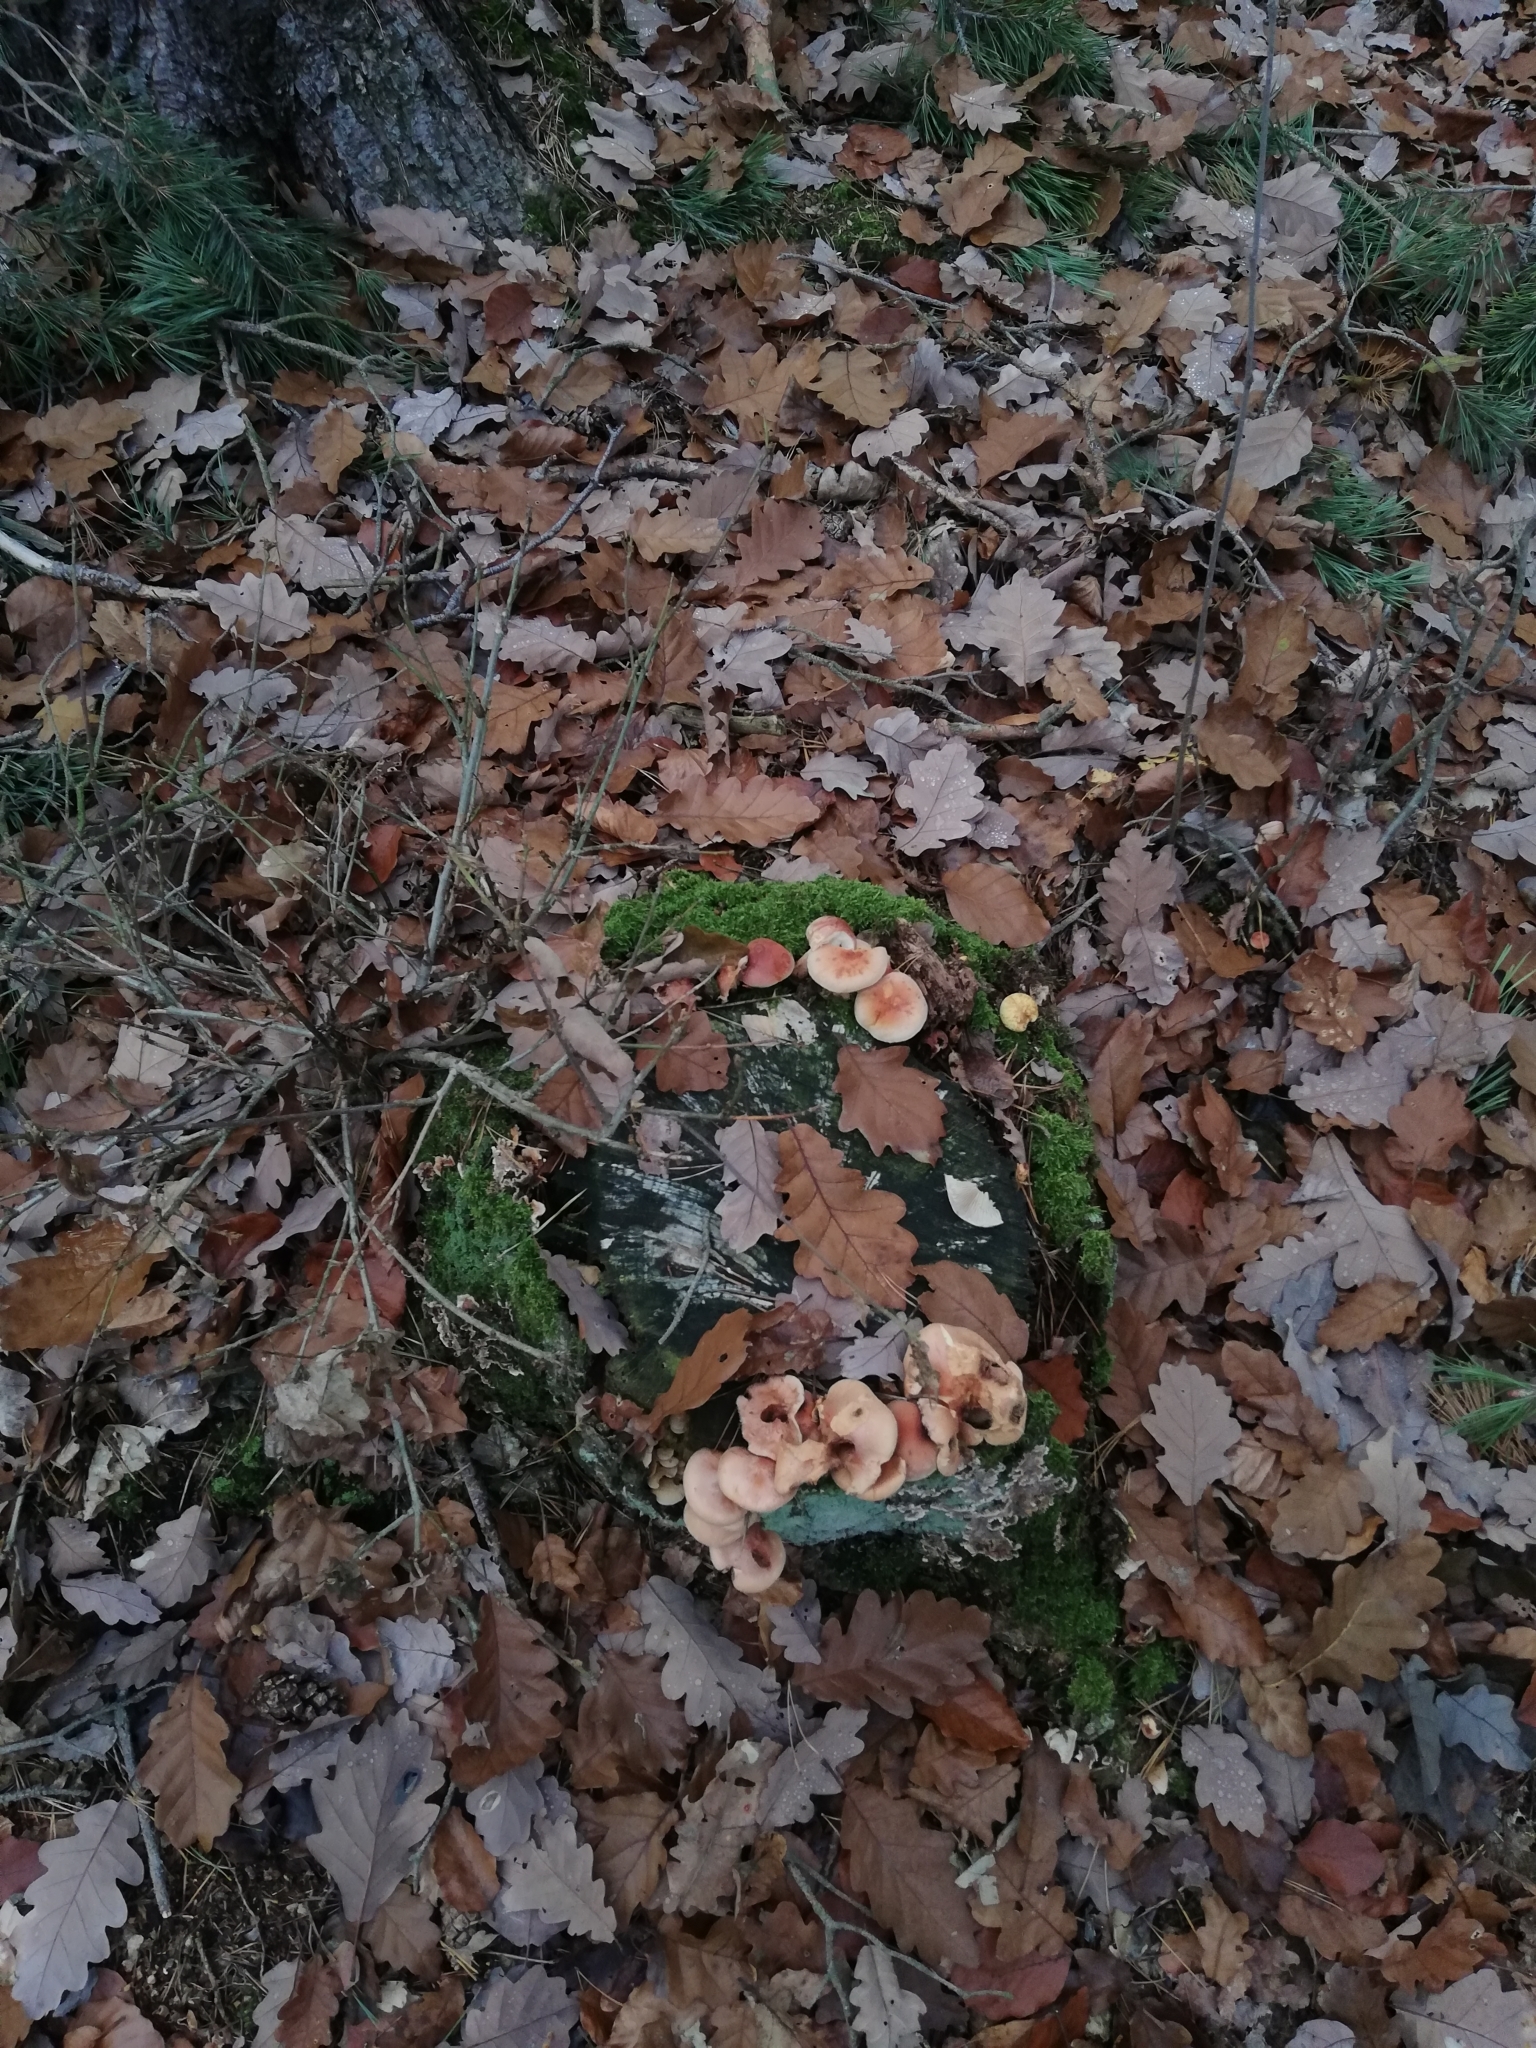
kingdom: Fungi
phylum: Basidiomycota
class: Agaricomycetes
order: Agaricales
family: Strophariaceae
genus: Hypholoma
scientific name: Hypholoma lateritium
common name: Brick caps
